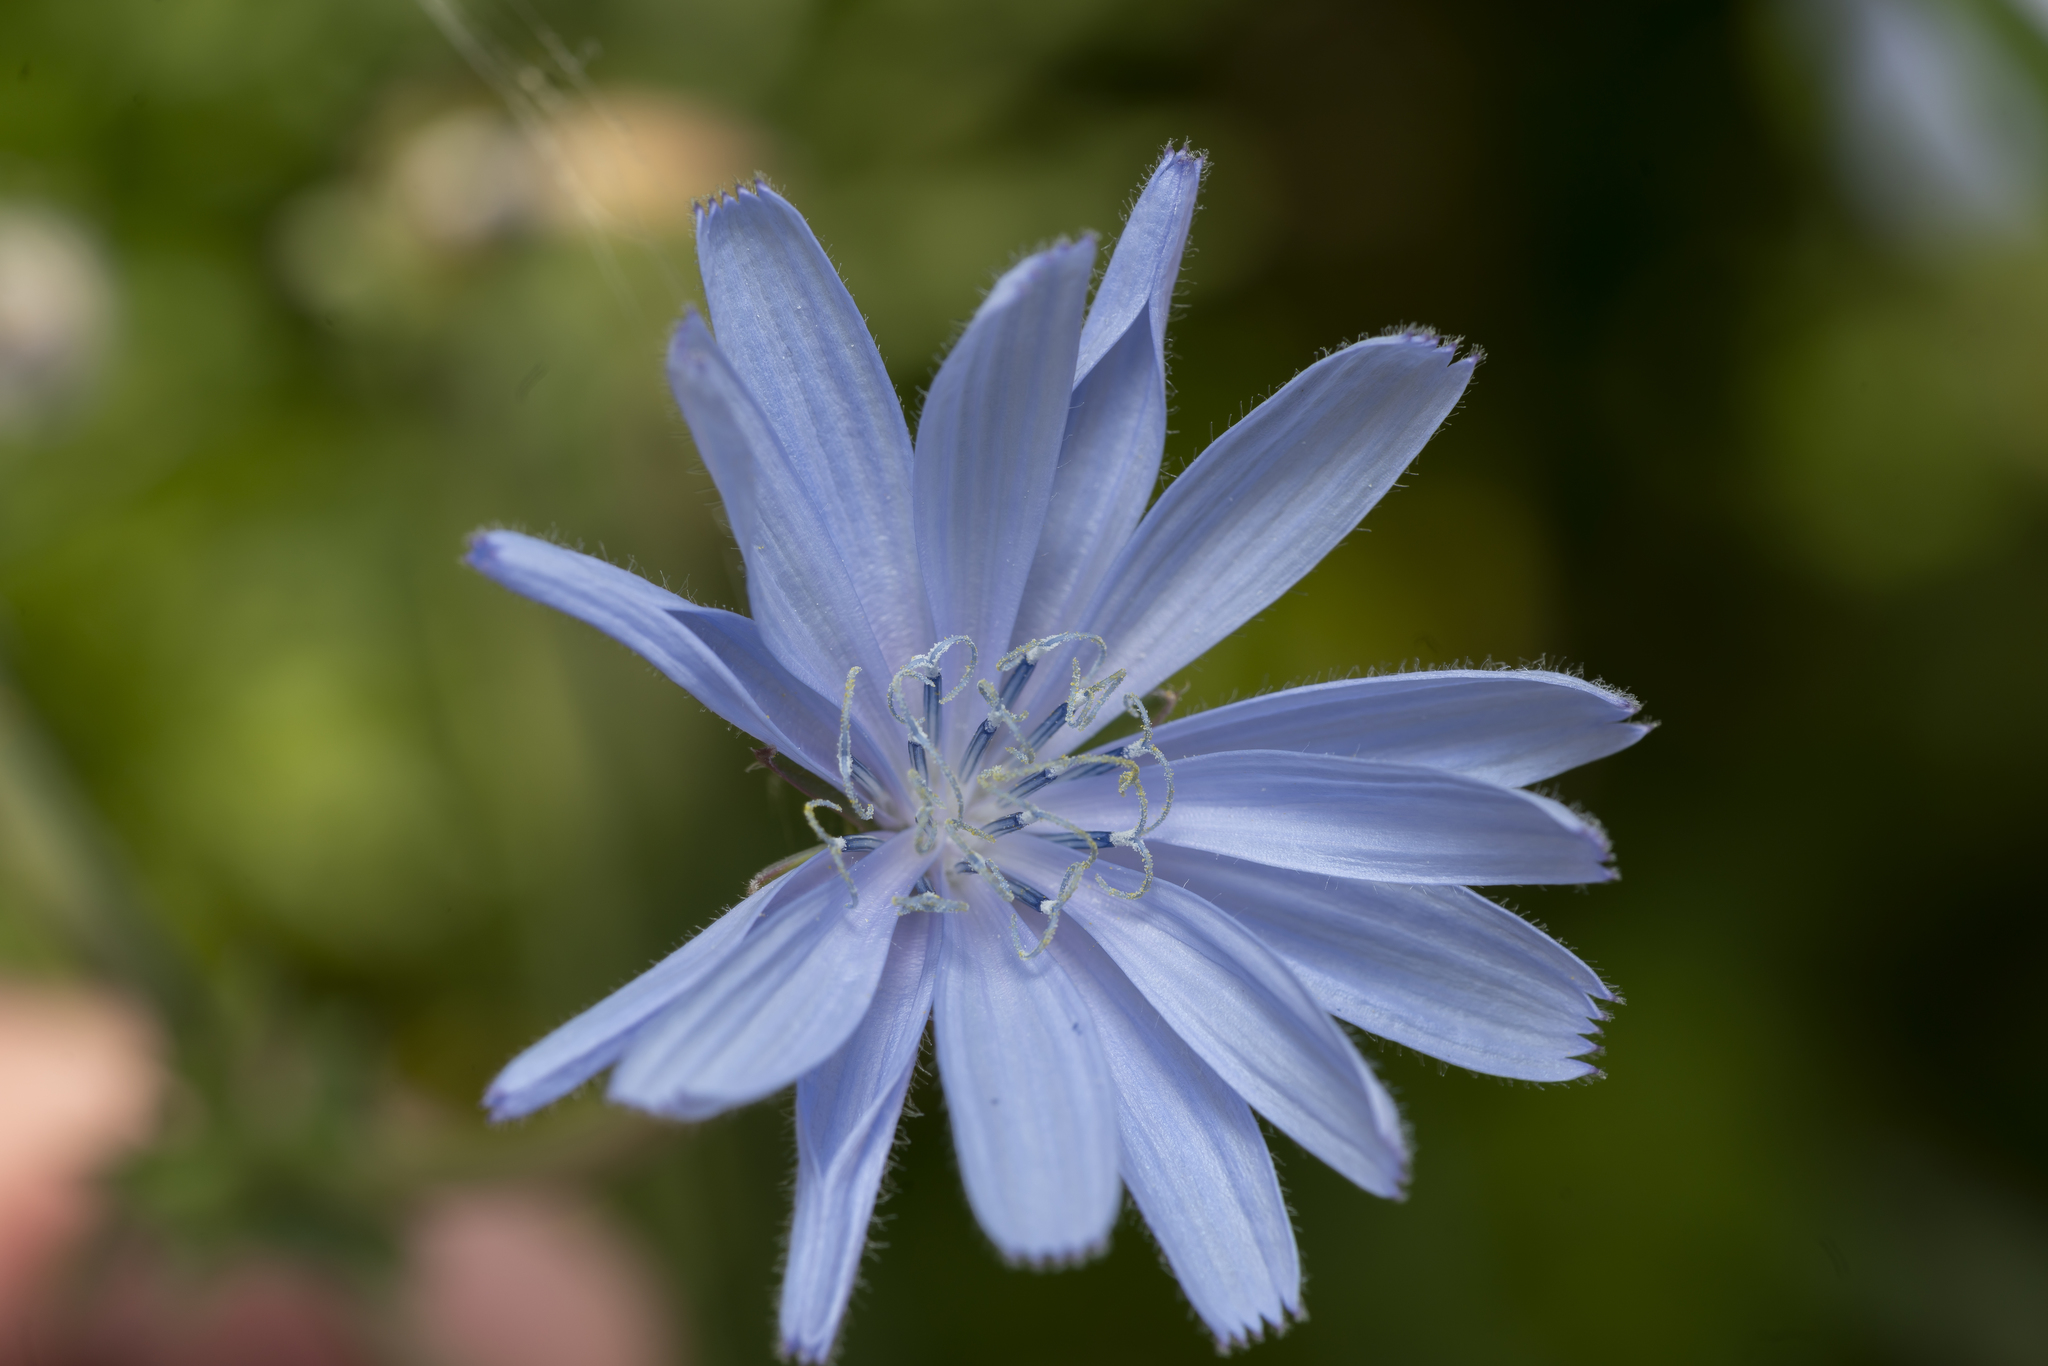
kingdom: Plantae
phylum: Tracheophyta
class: Magnoliopsida
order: Asterales
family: Asteraceae
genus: Cichorium
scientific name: Cichorium intybus
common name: Chicory
